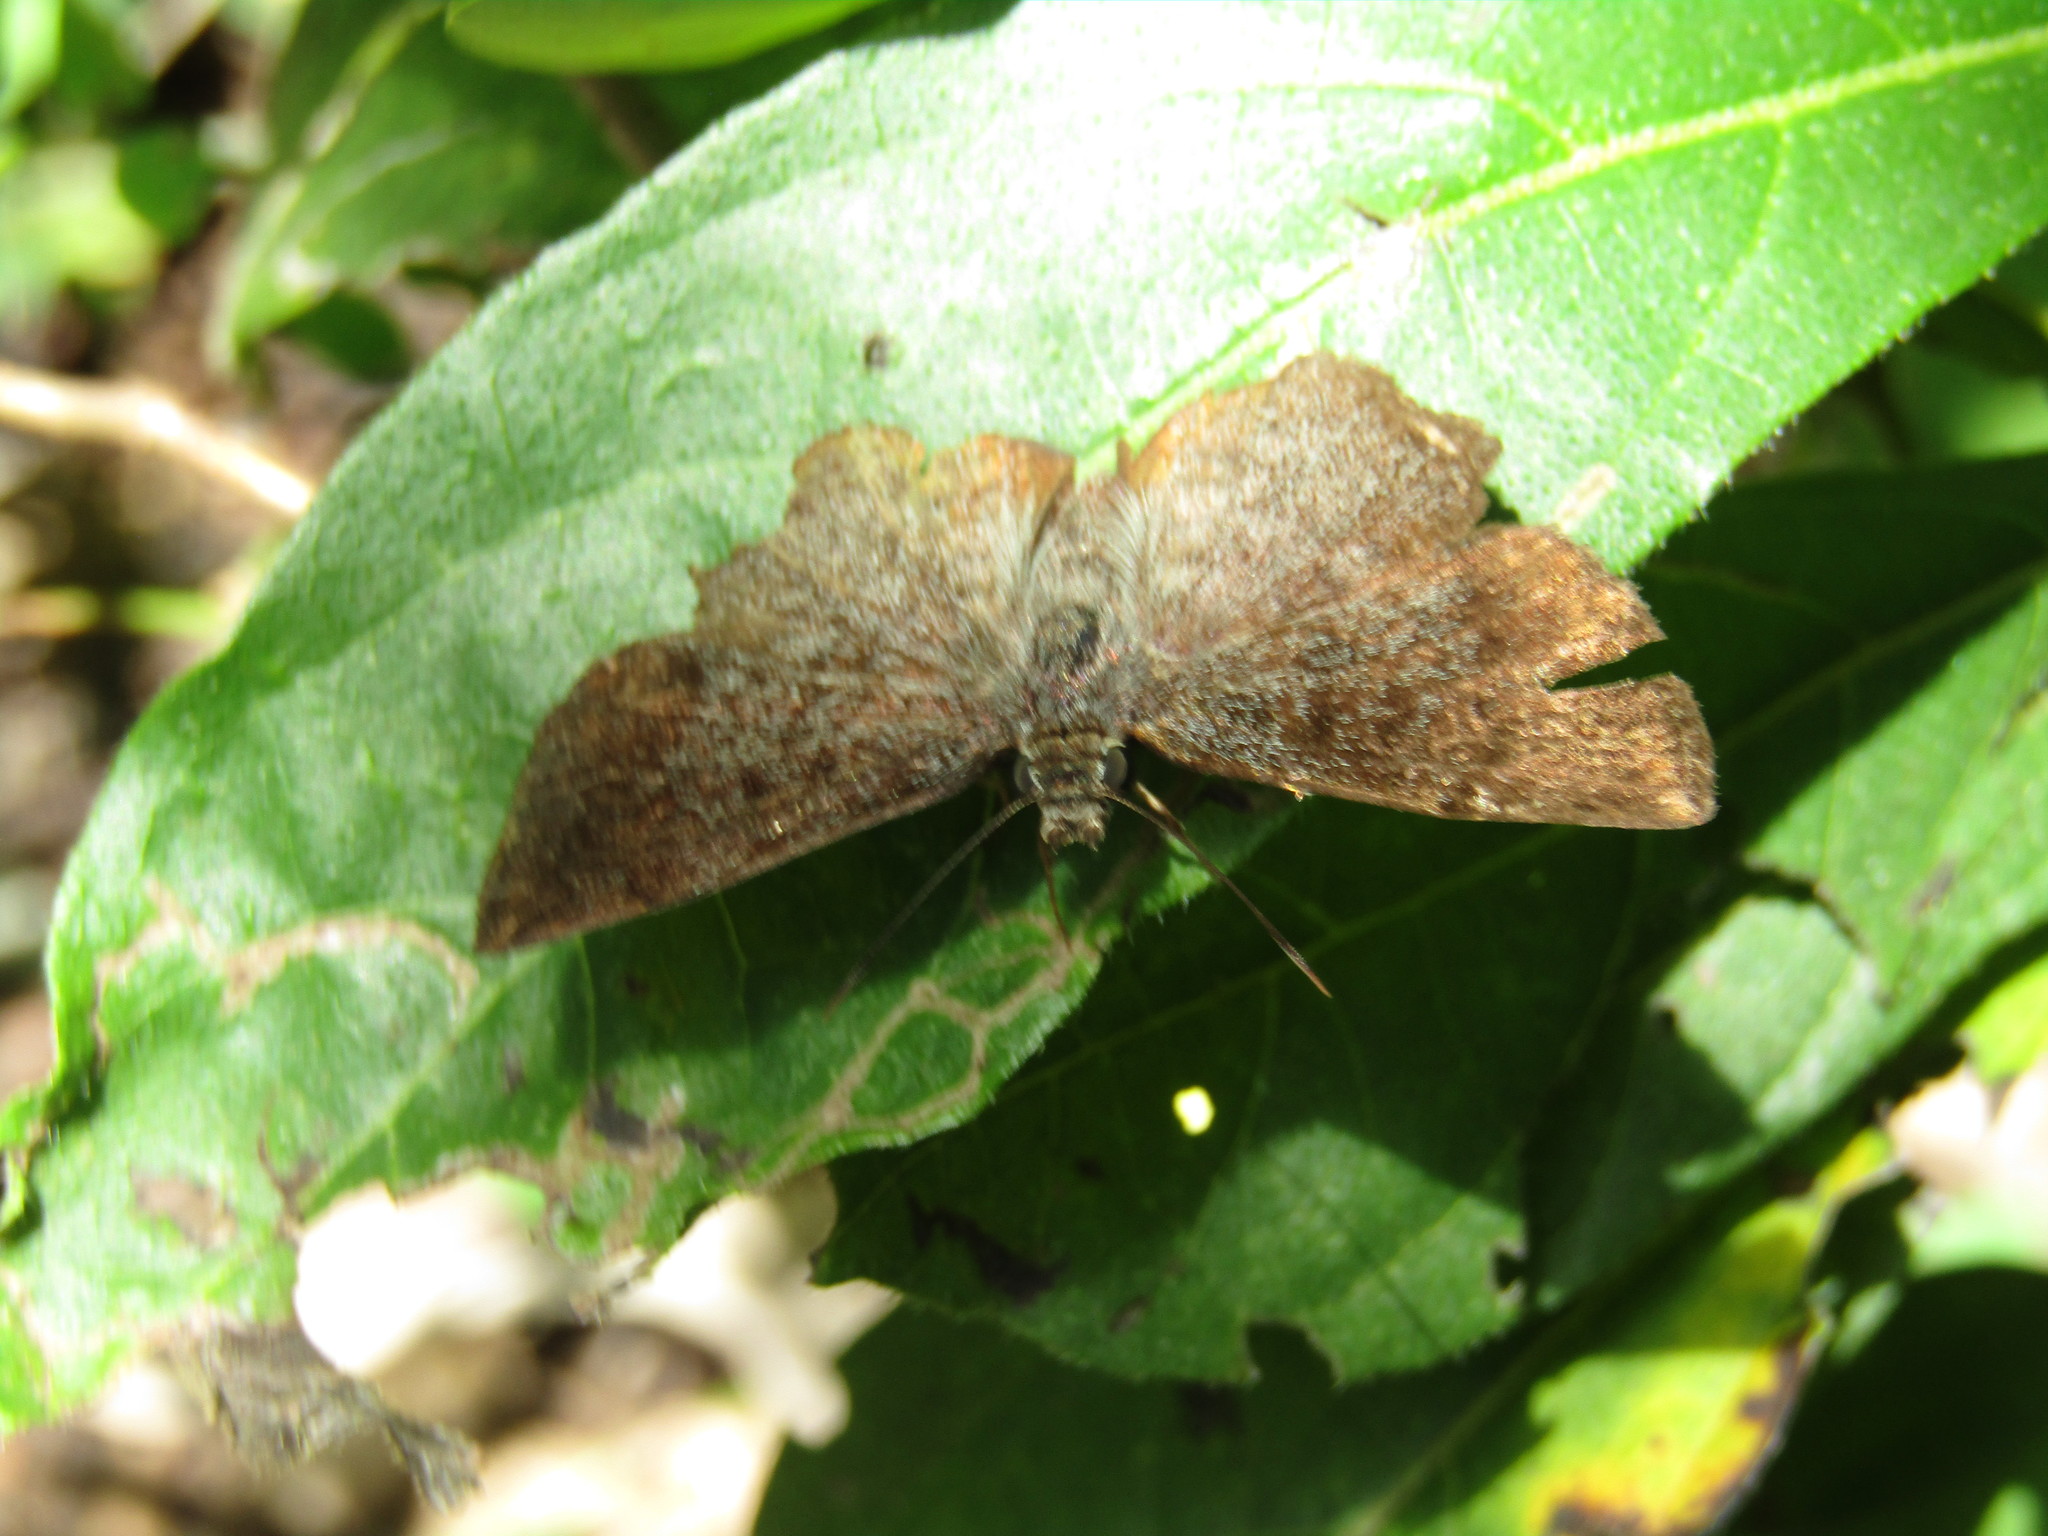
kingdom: Animalia
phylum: Arthropoda
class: Insecta
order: Lepidoptera
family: Hesperiidae
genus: Antigonus
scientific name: Antigonus erosus
